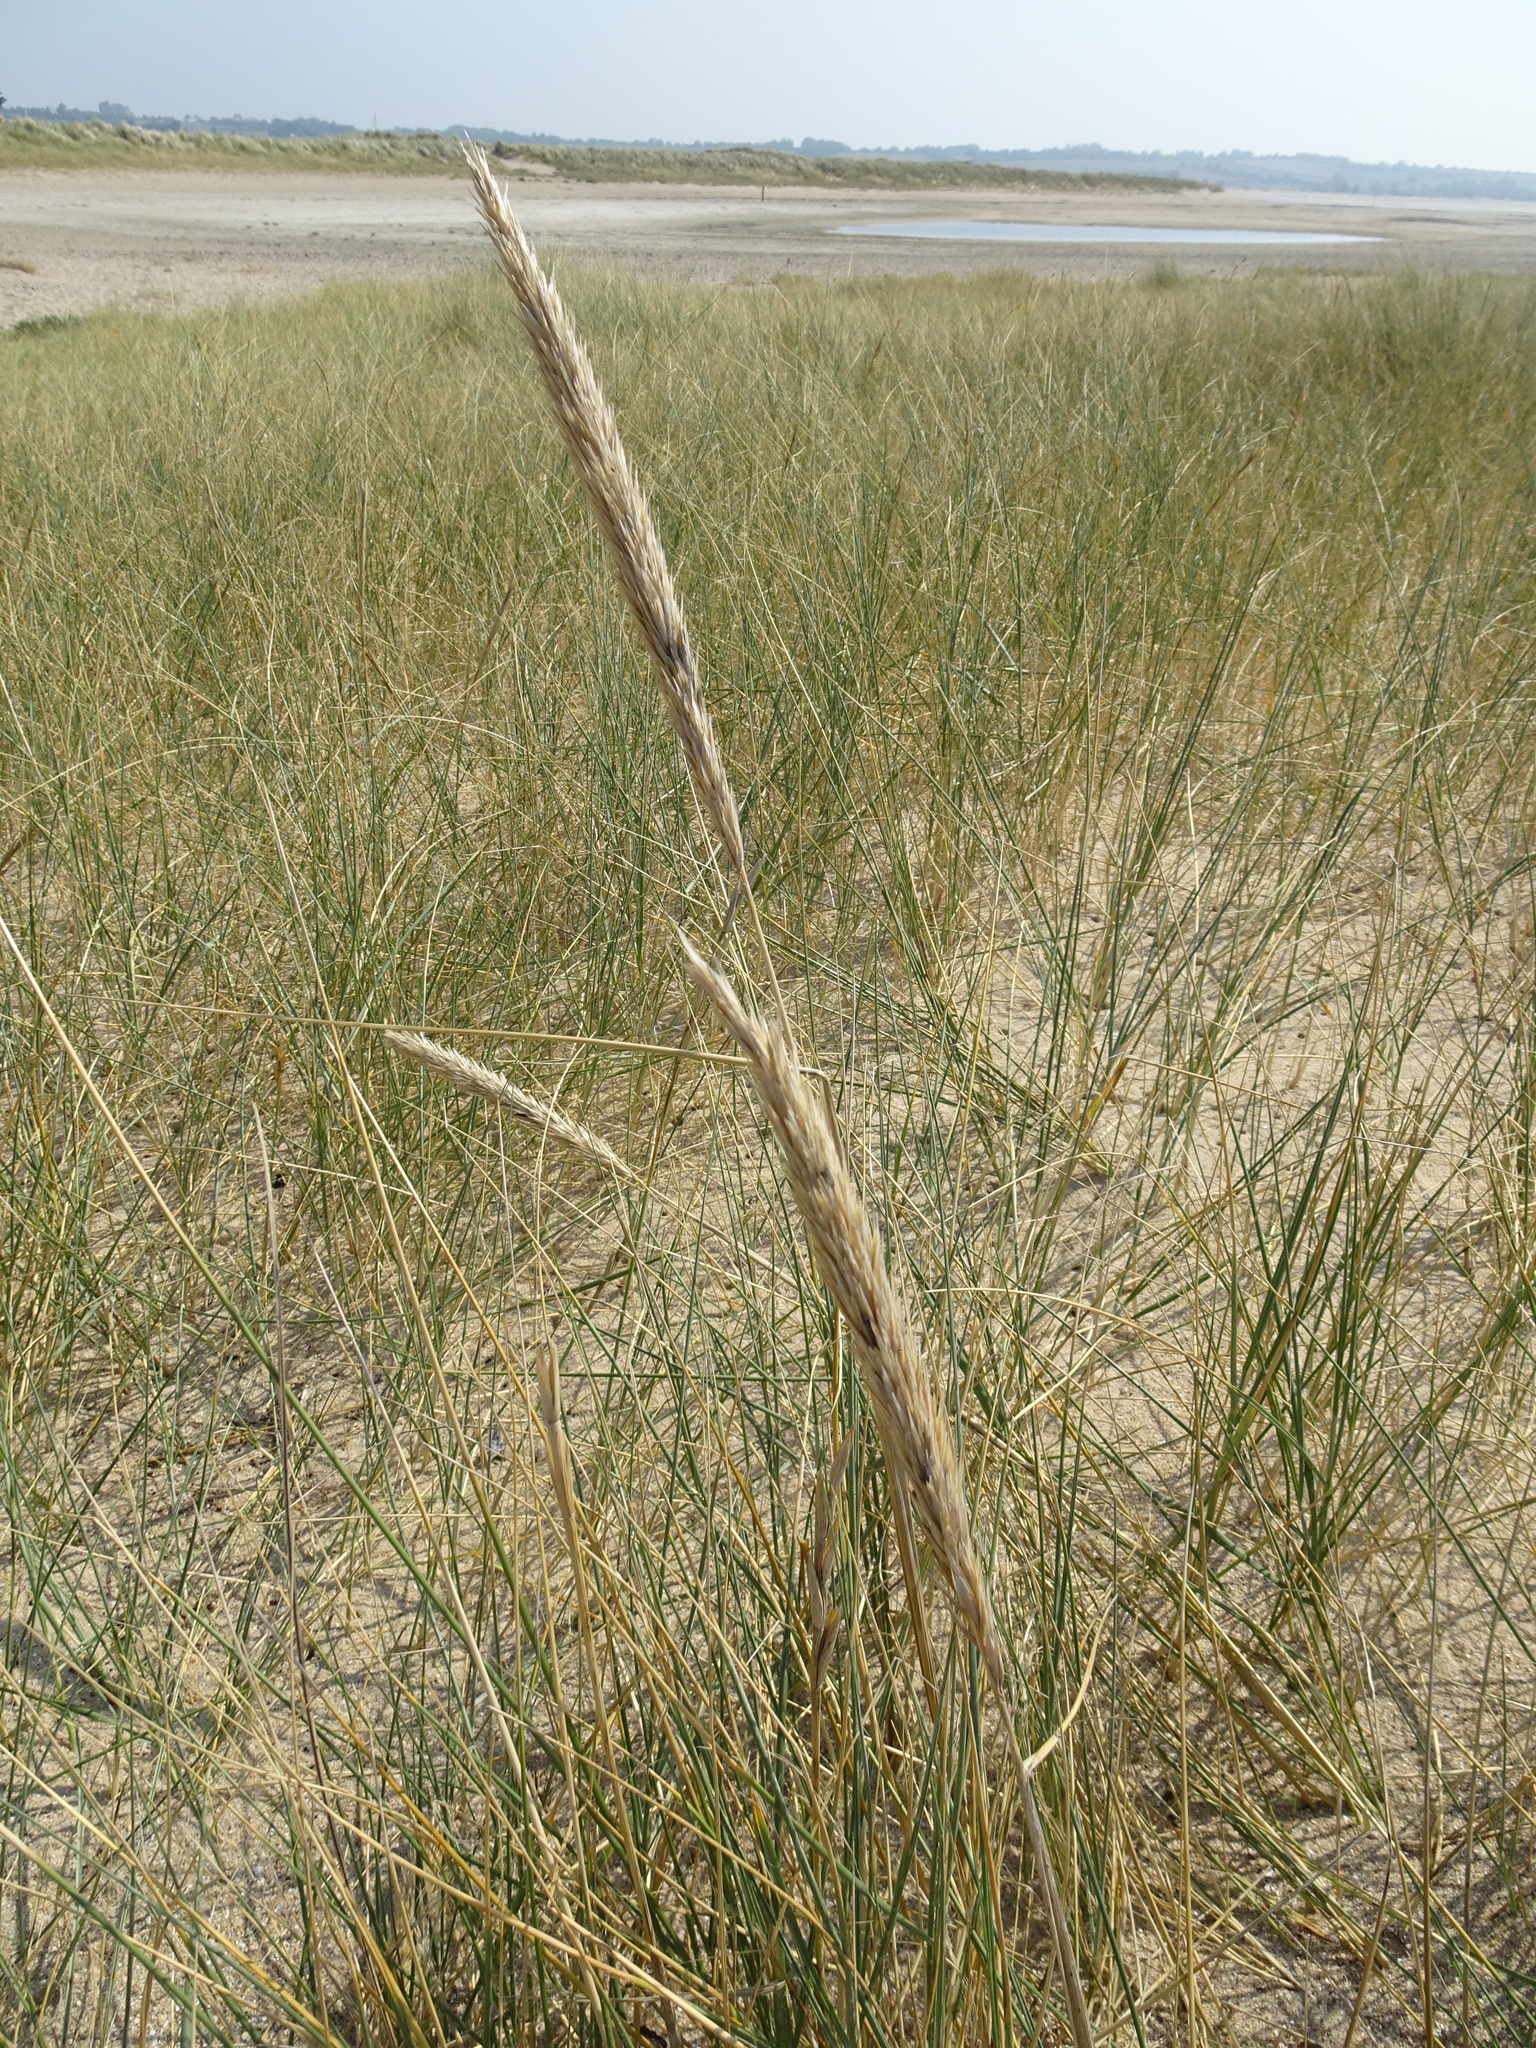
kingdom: Plantae
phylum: Tracheophyta
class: Liliopsida
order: Poales
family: Poaceae
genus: Calamagrostis
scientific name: Calamagrostis arenaria
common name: European beachgrass
